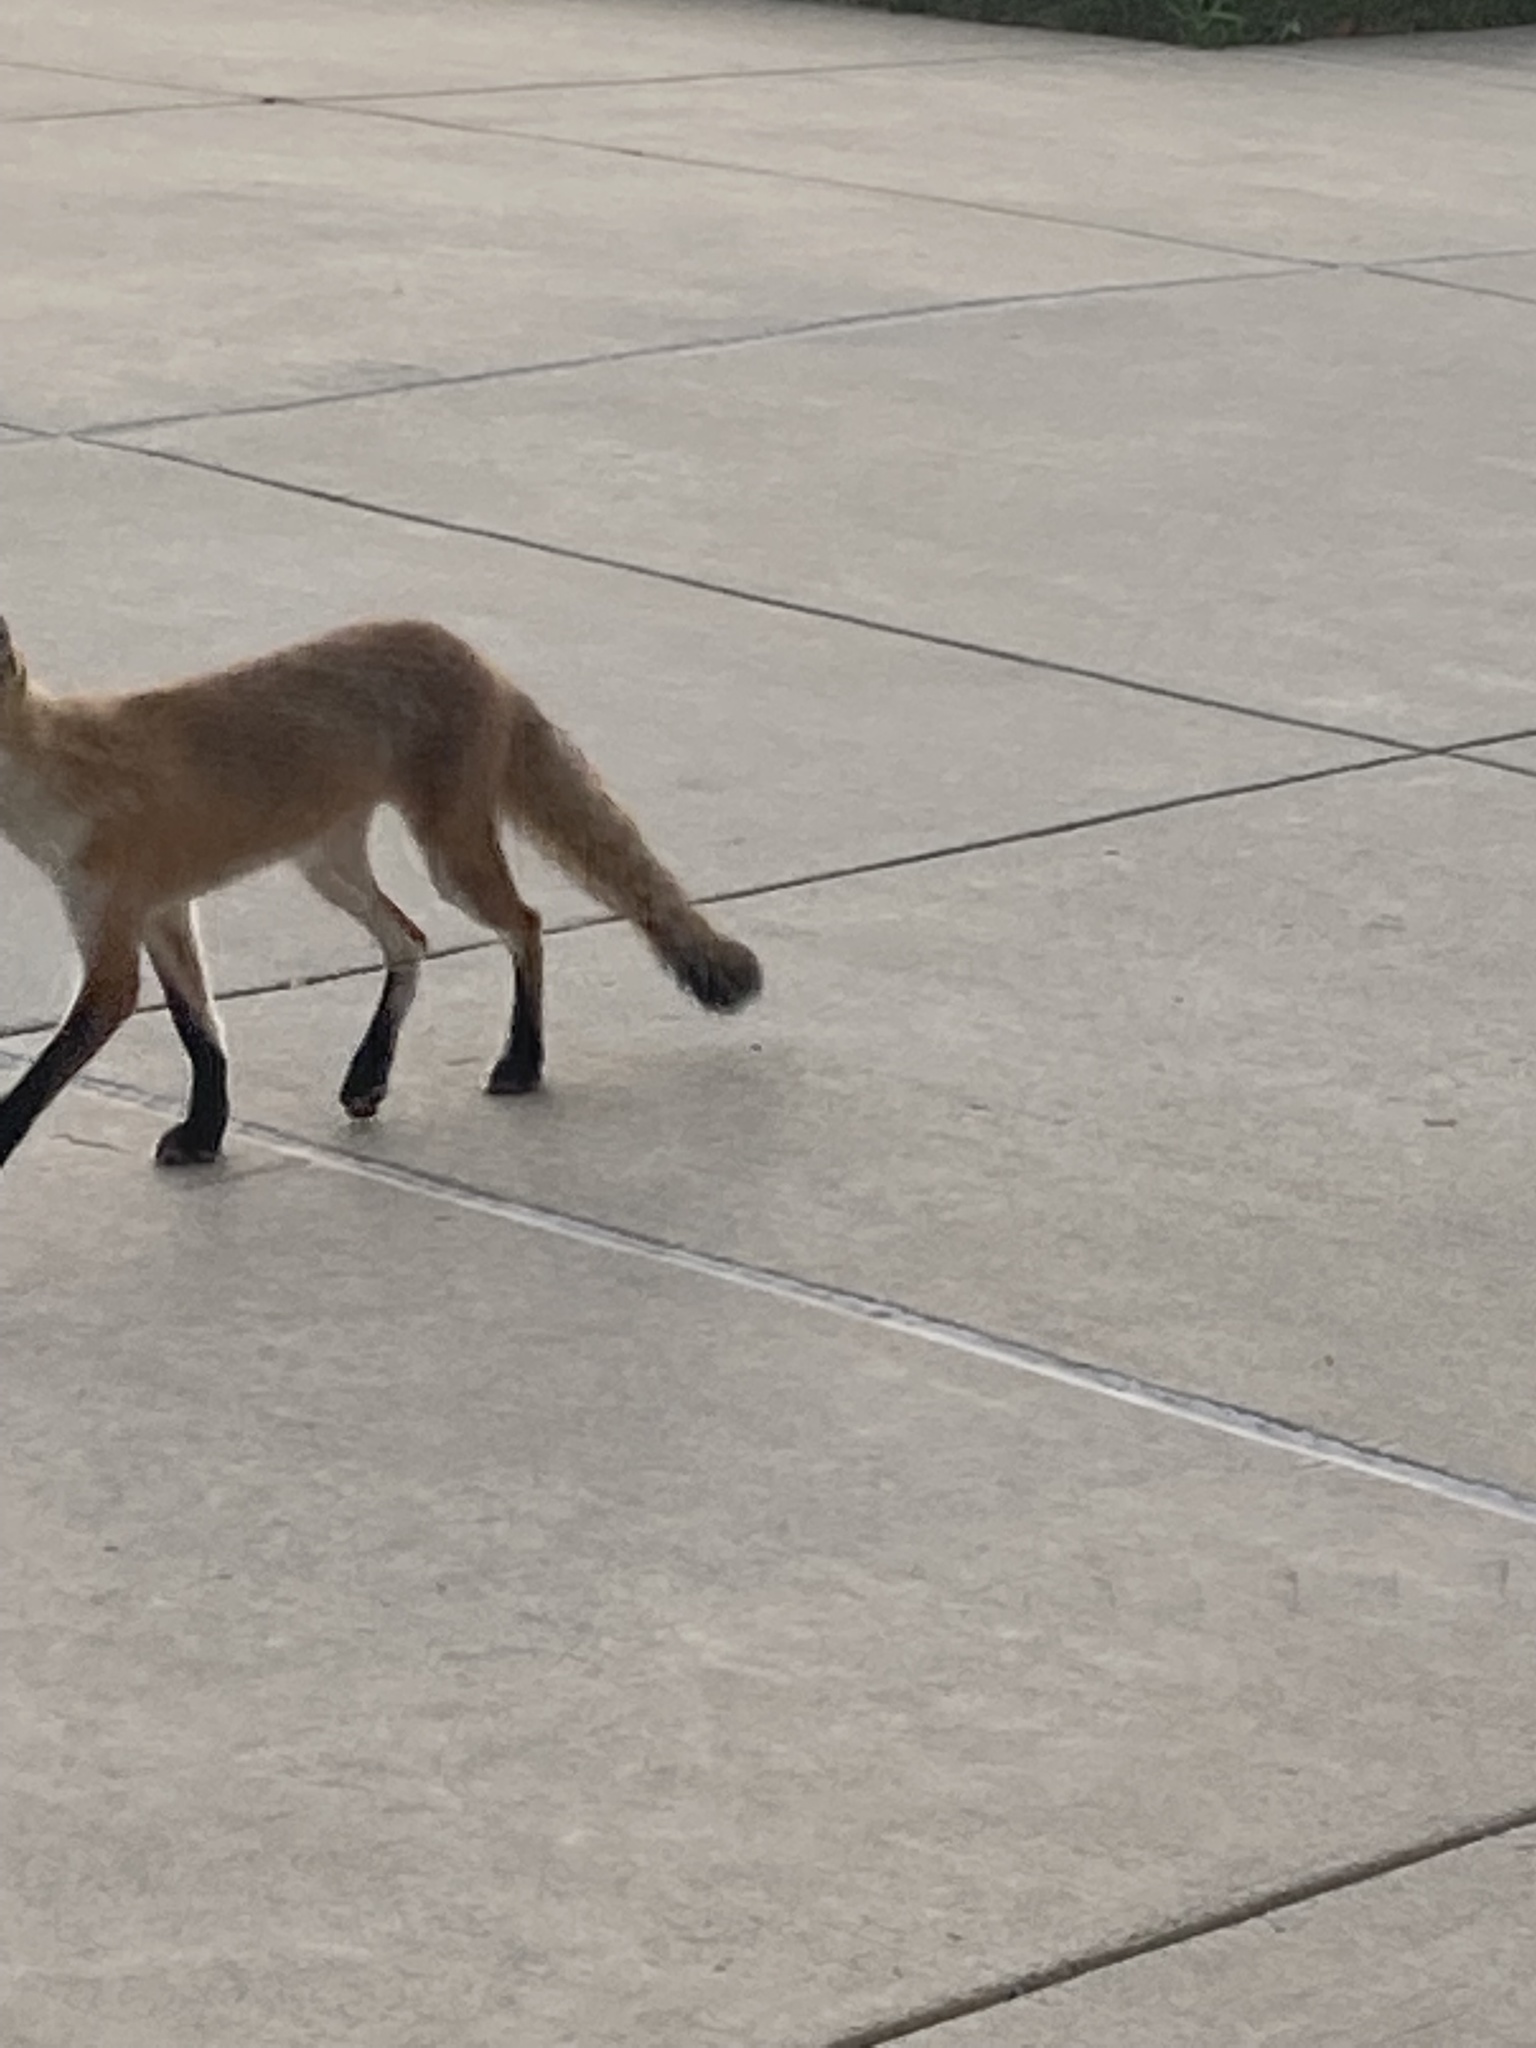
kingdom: Animalia
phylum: Chordata
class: Mammalia
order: Carnivora
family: Canidae
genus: Vulpes
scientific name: Vulpes vulpes
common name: Red fox
